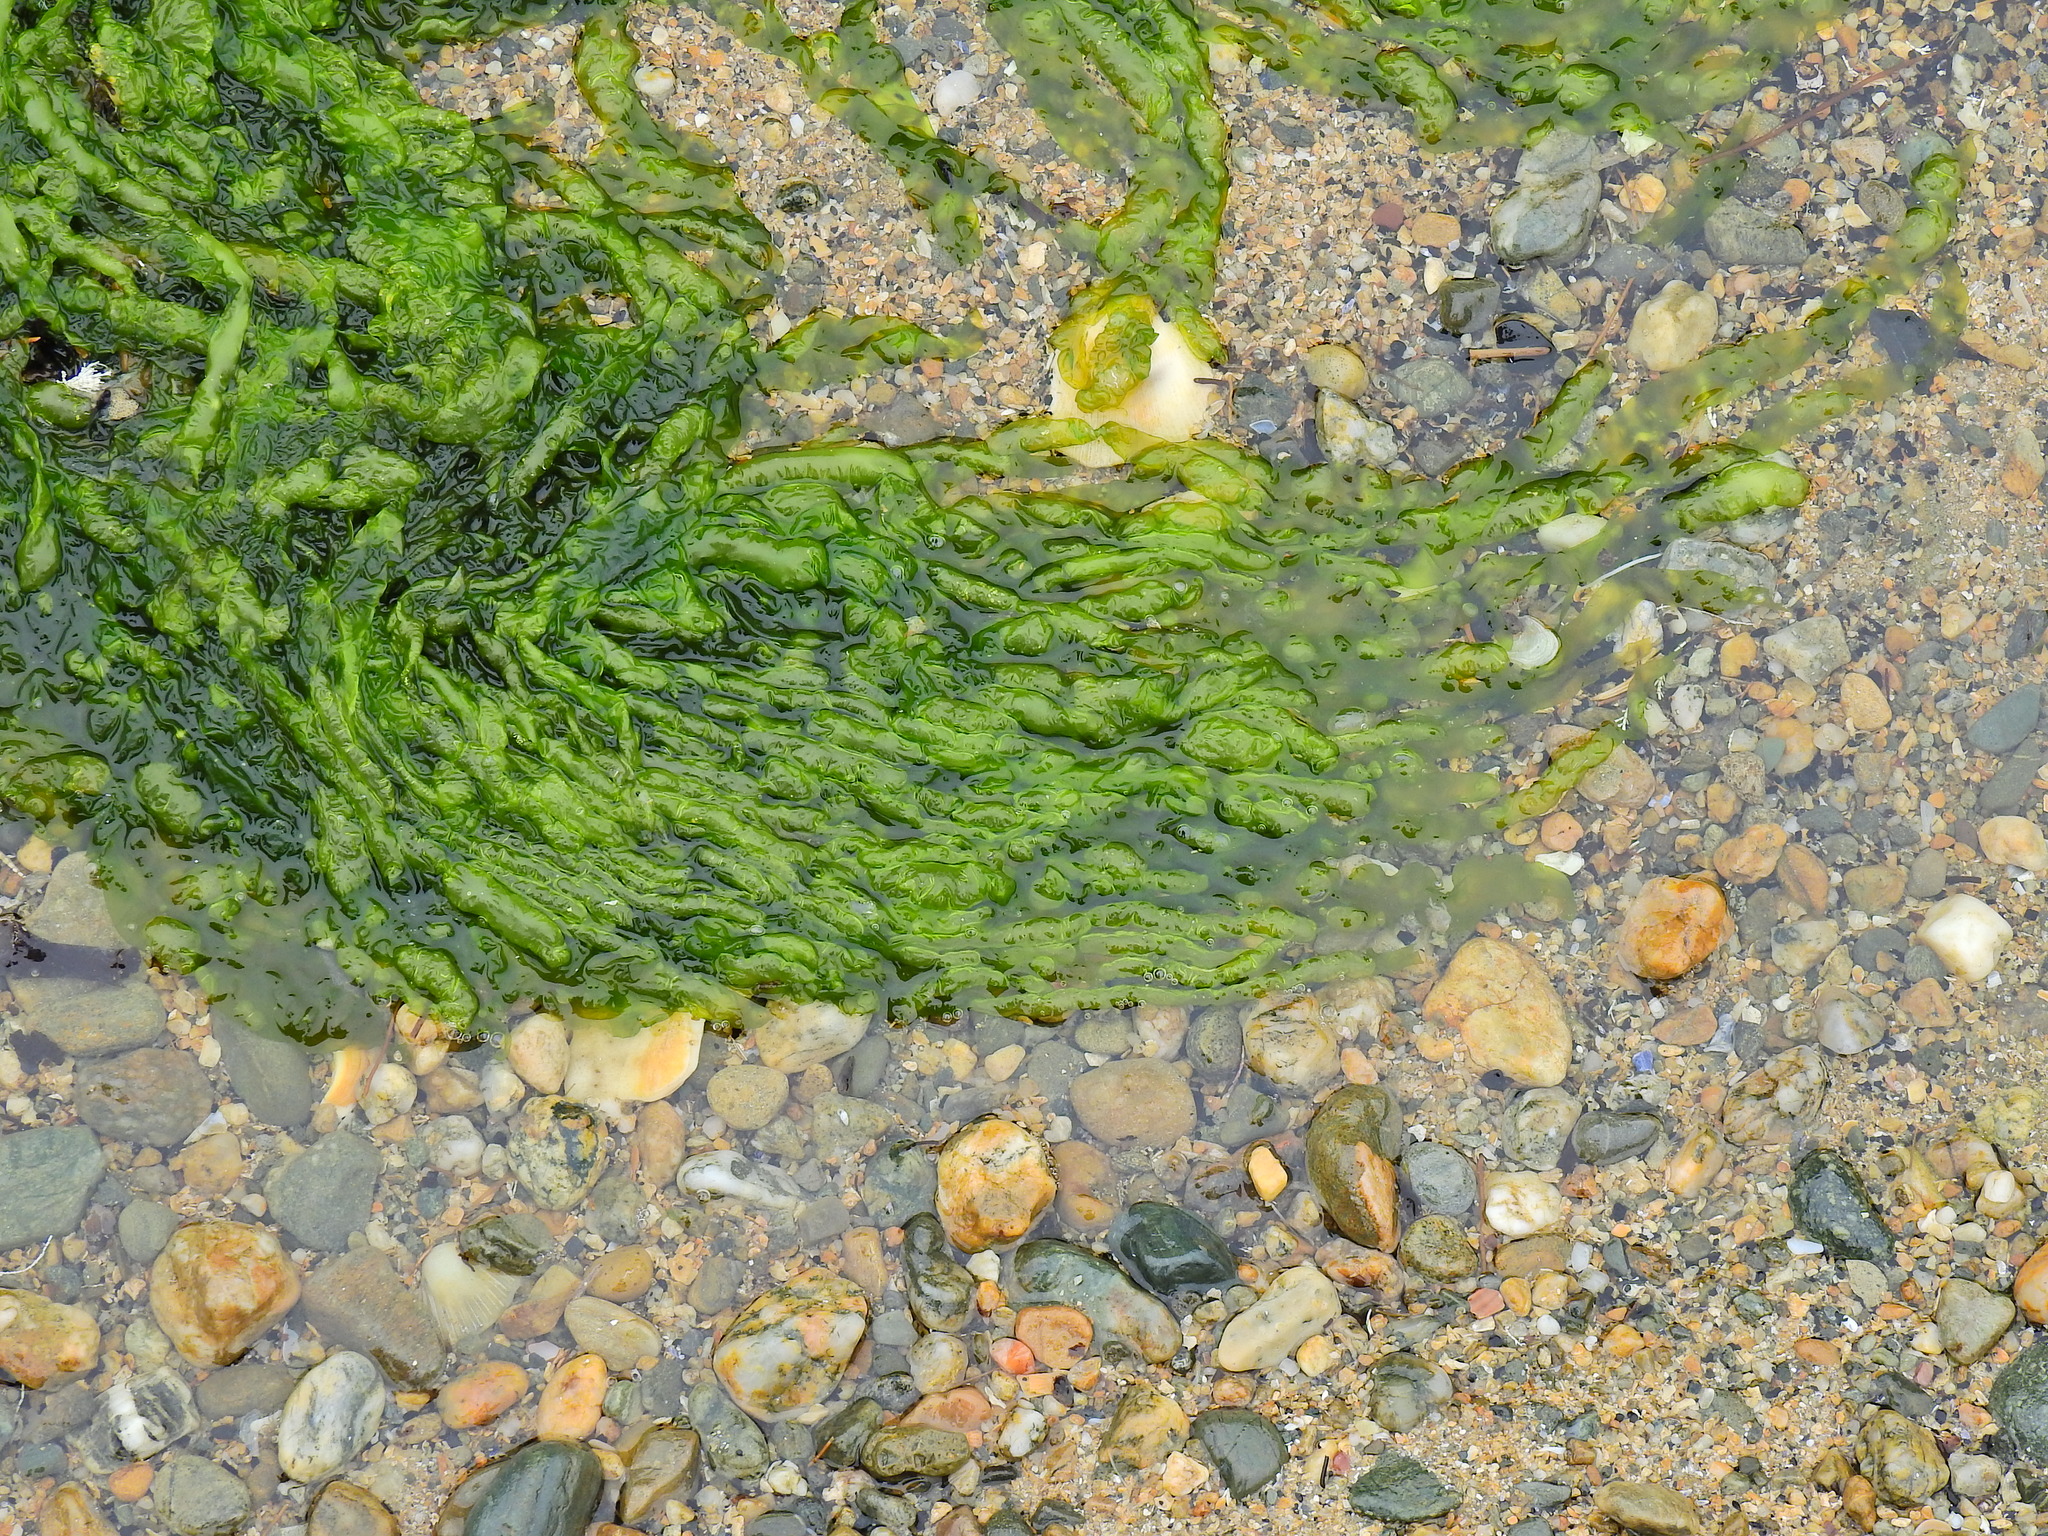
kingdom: Plantae
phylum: Chlorophyta
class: Ulvophyceae
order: Ulvales
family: Ulvaceae
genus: Ulva
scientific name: Ulva intestinalis
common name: Gut weed
